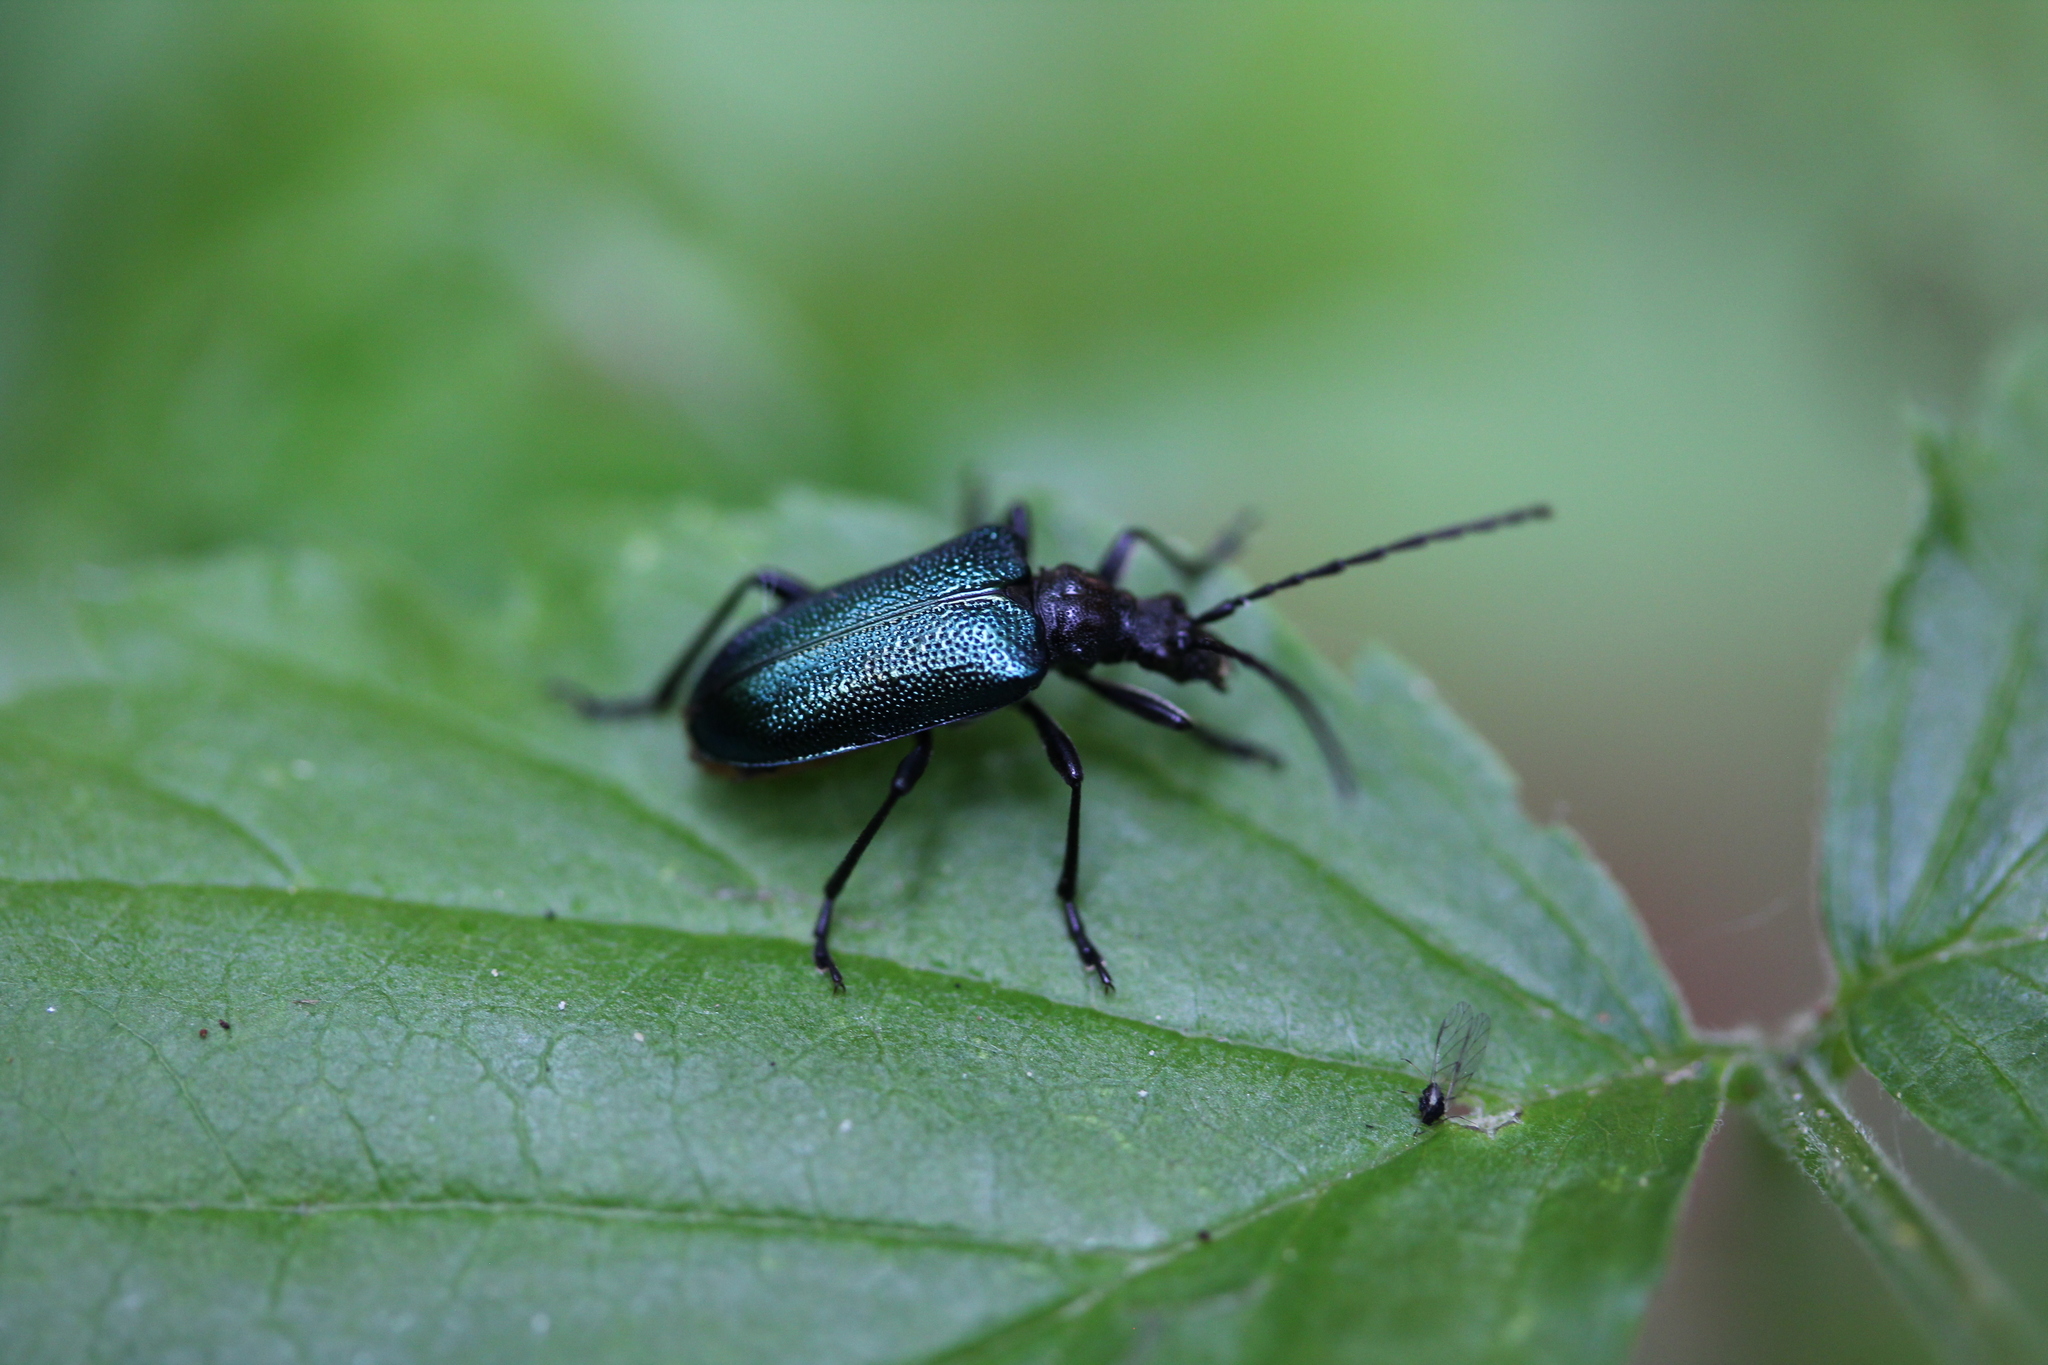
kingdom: Animalia
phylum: Arthropoda
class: Insecta
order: Coleoptera
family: Cerambycidae
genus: Gaurotes
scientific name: Gaurotes virginea
